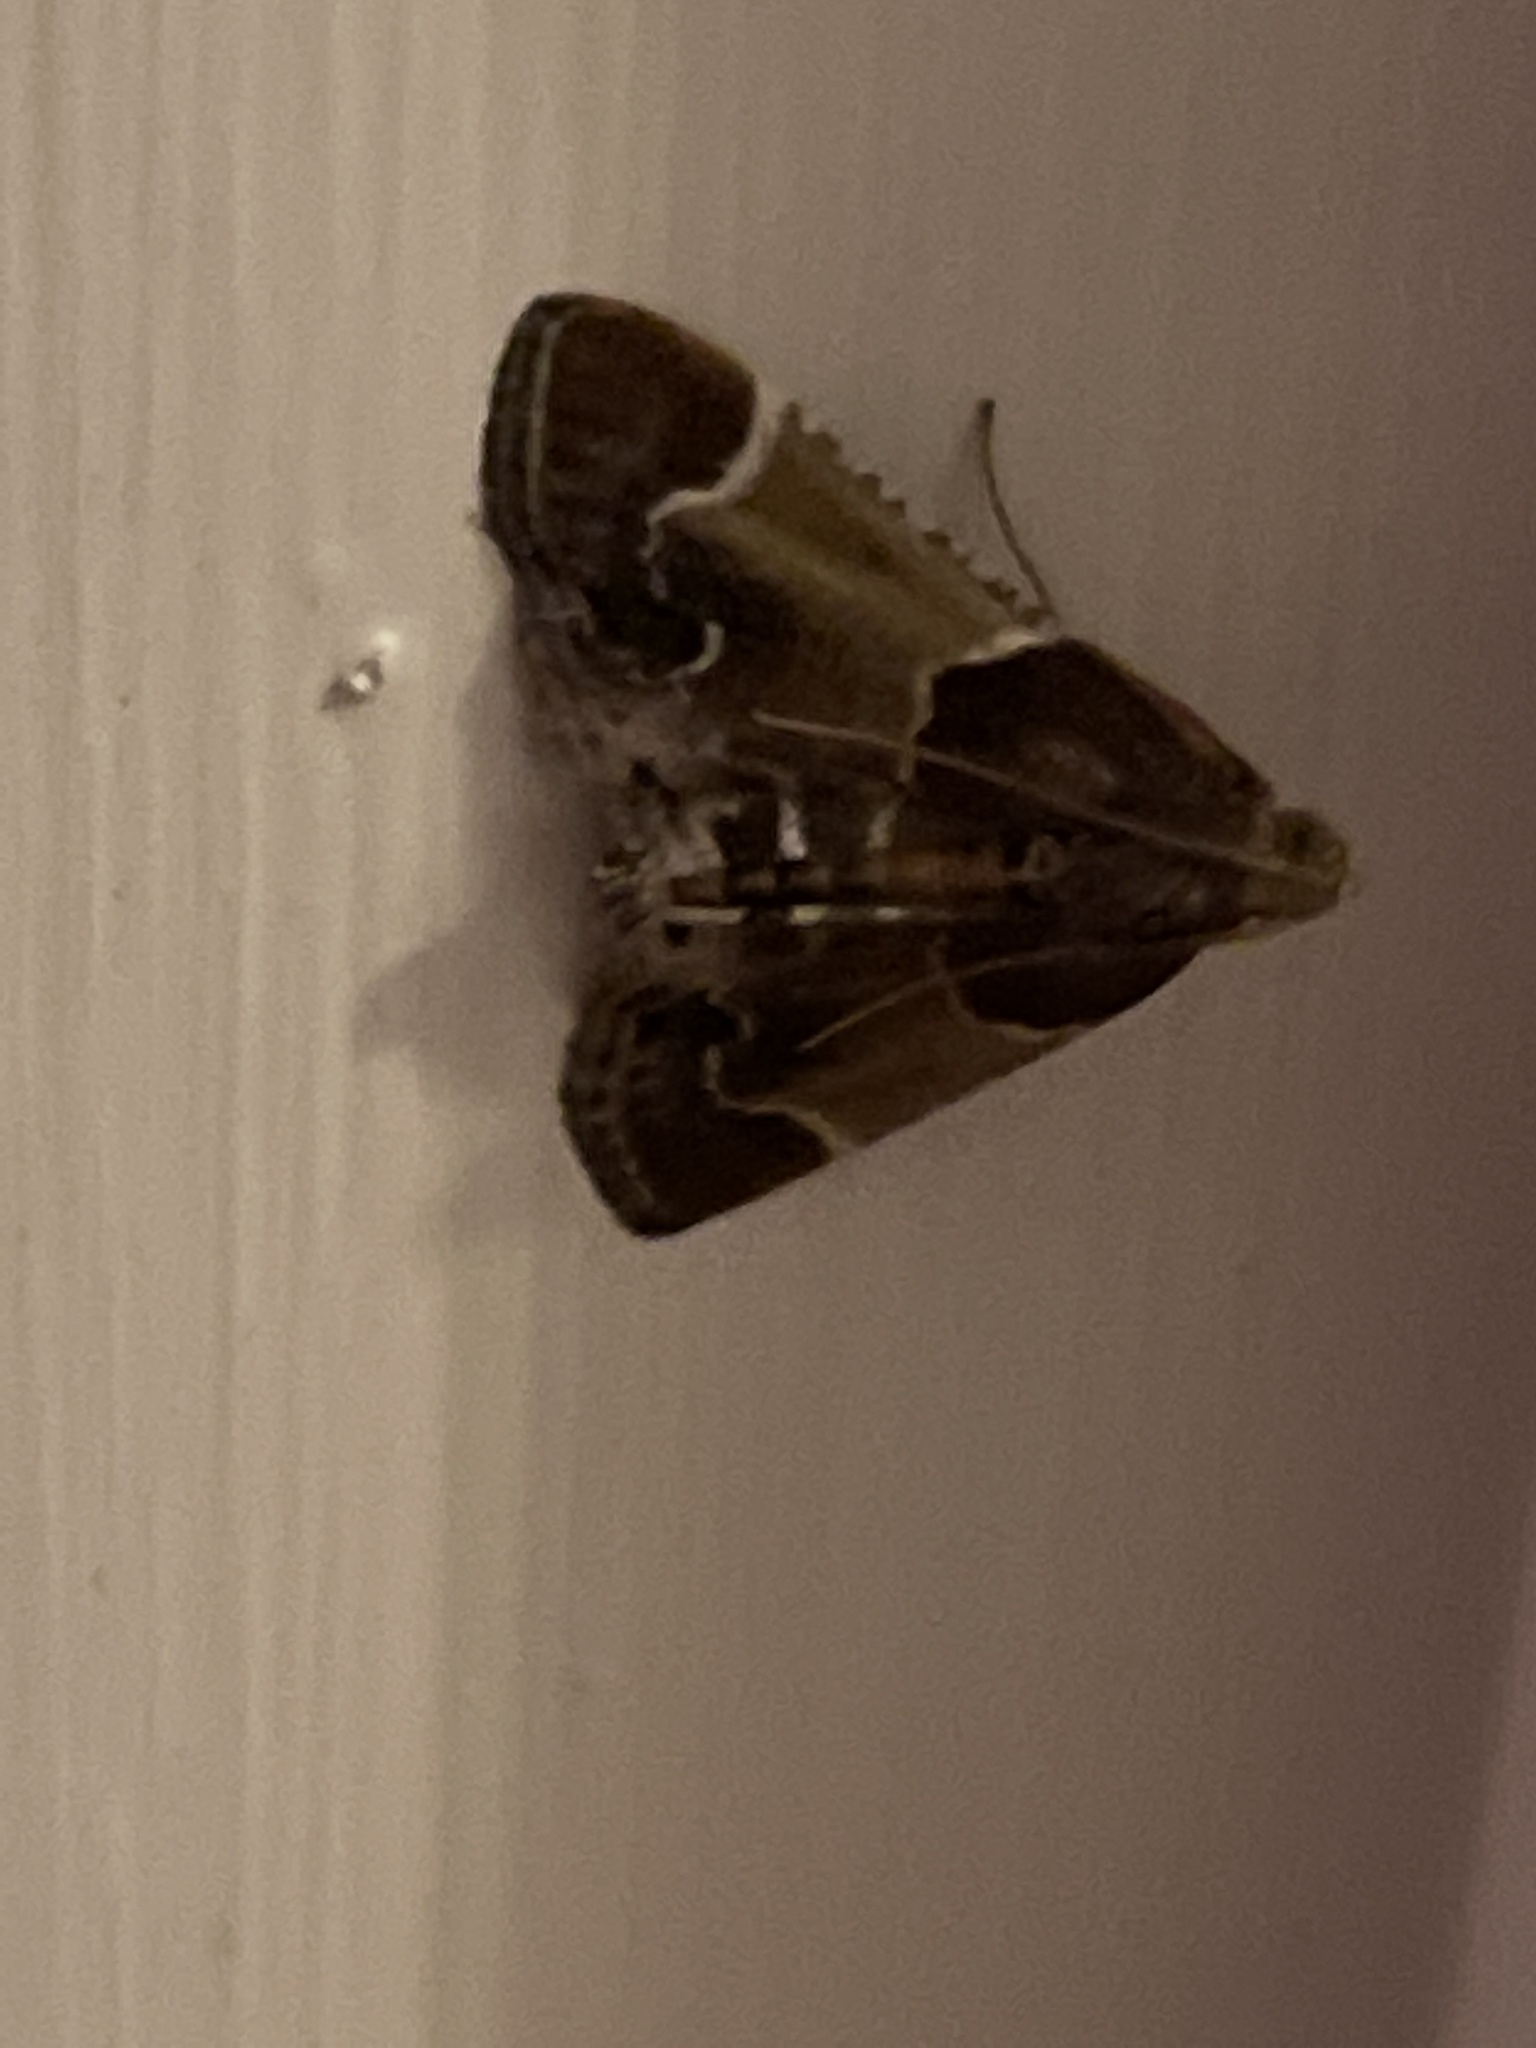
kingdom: Animalia
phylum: Arthropoda
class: Insecta
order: Lepidoptera
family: Pyralidae
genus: Pyralis
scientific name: Pyralis farinalis
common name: Meal moth
